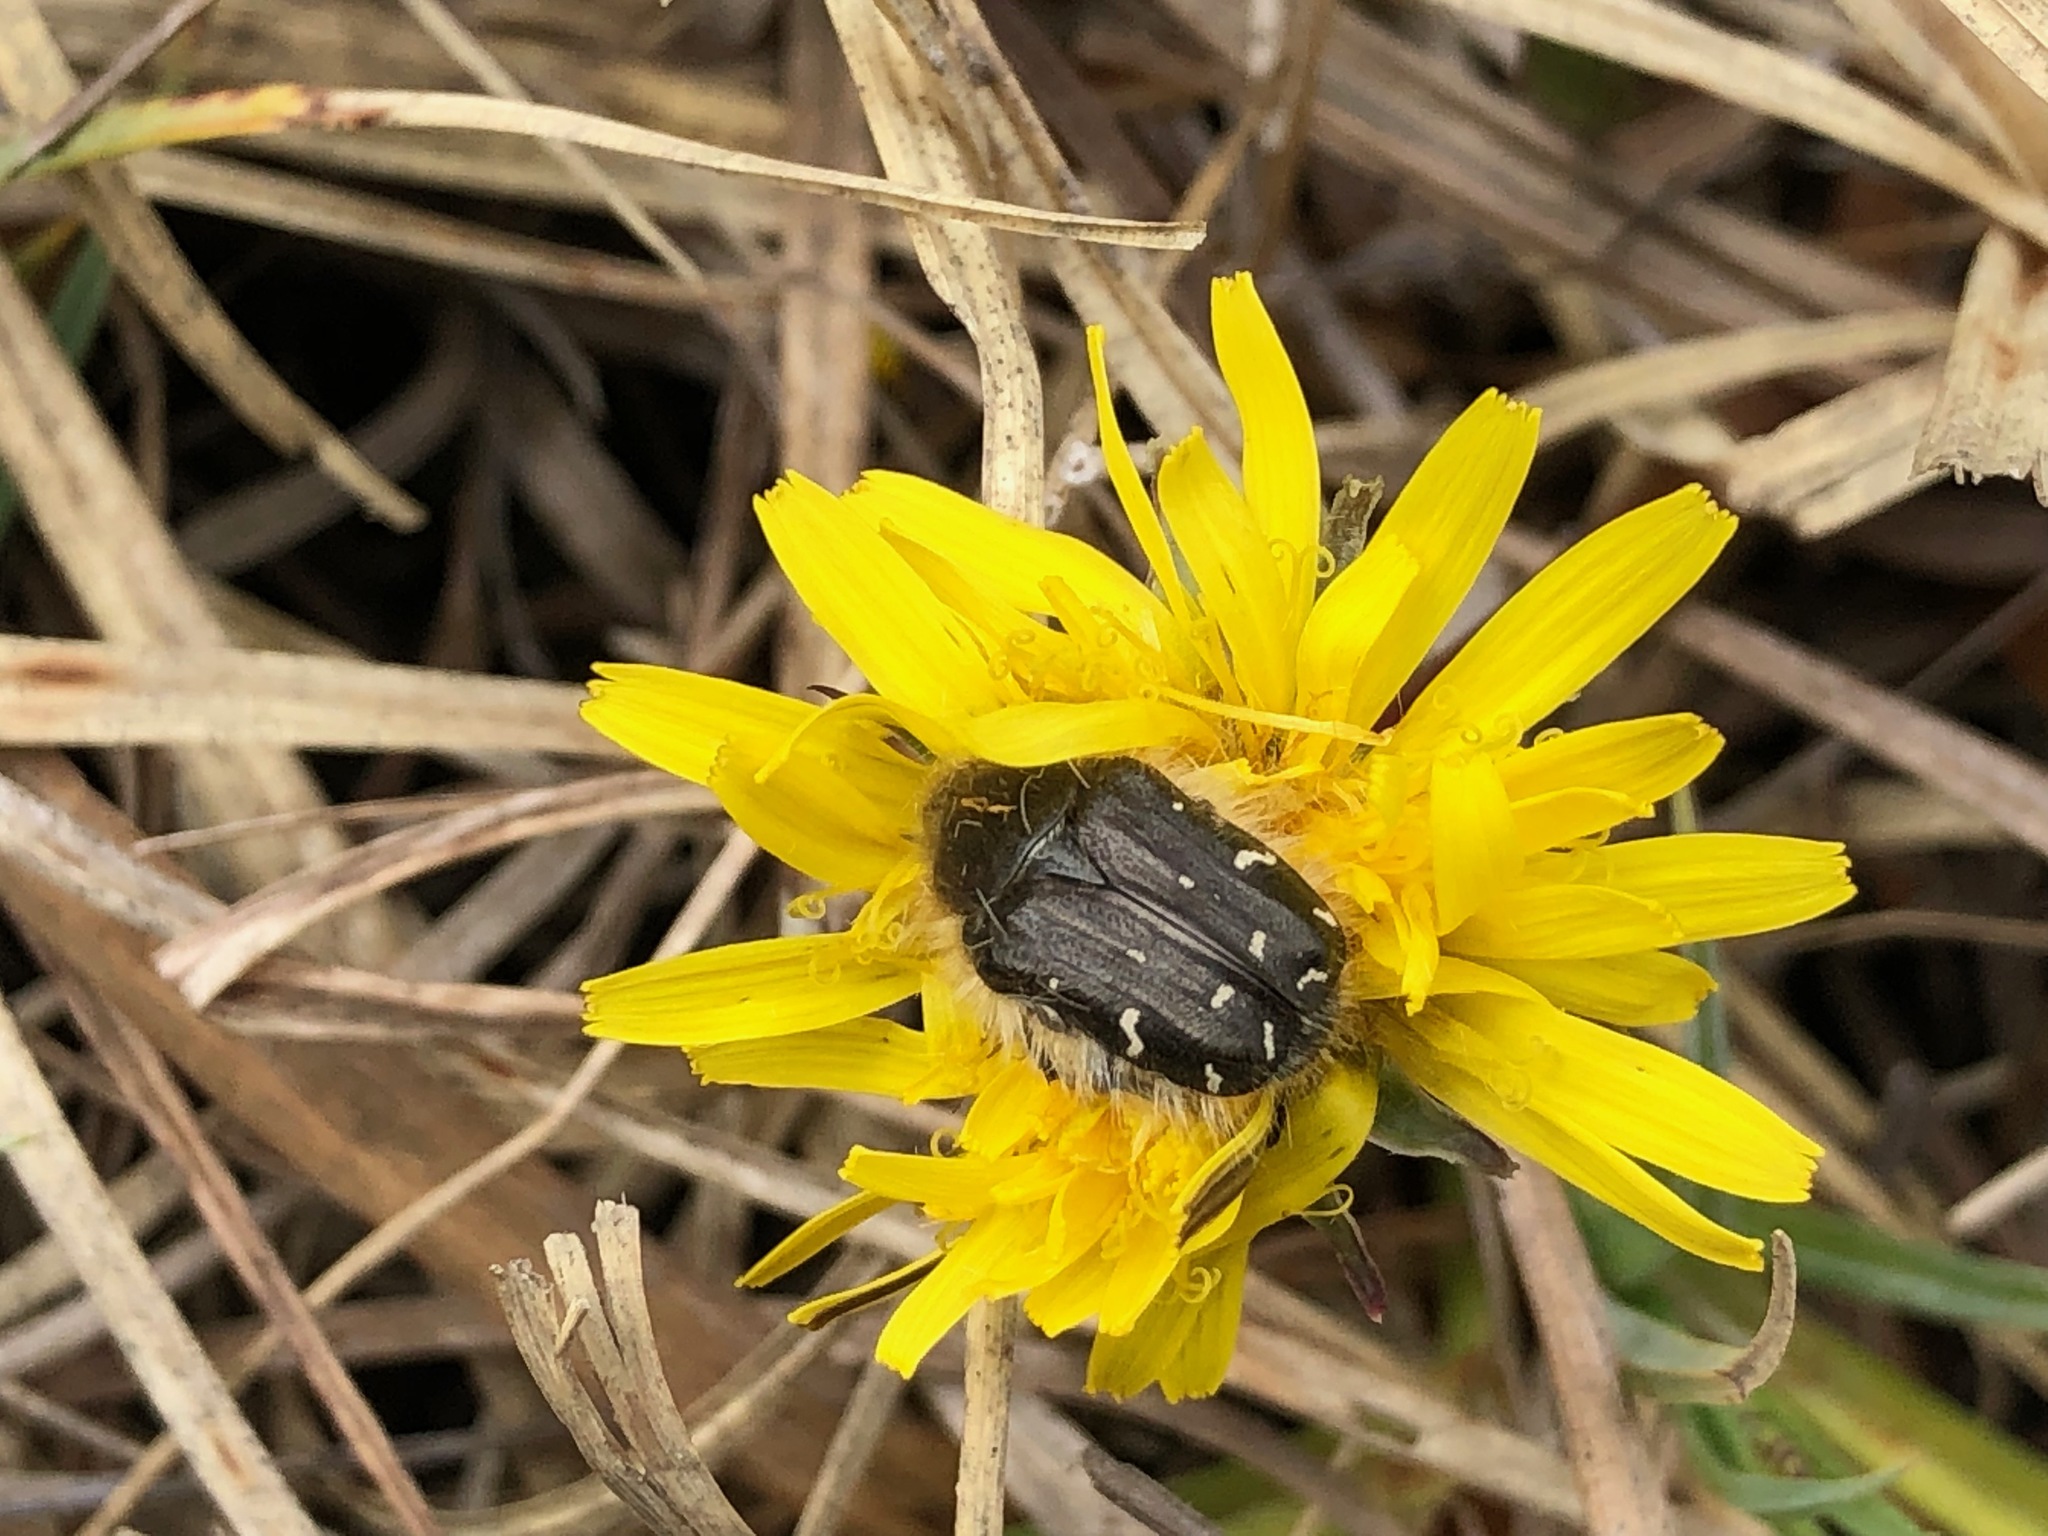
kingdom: Animalia
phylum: Arthropoda
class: Insecta
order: Coleoptera
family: Scarabaeidae
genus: Tropinota
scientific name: Tropinota hirta
